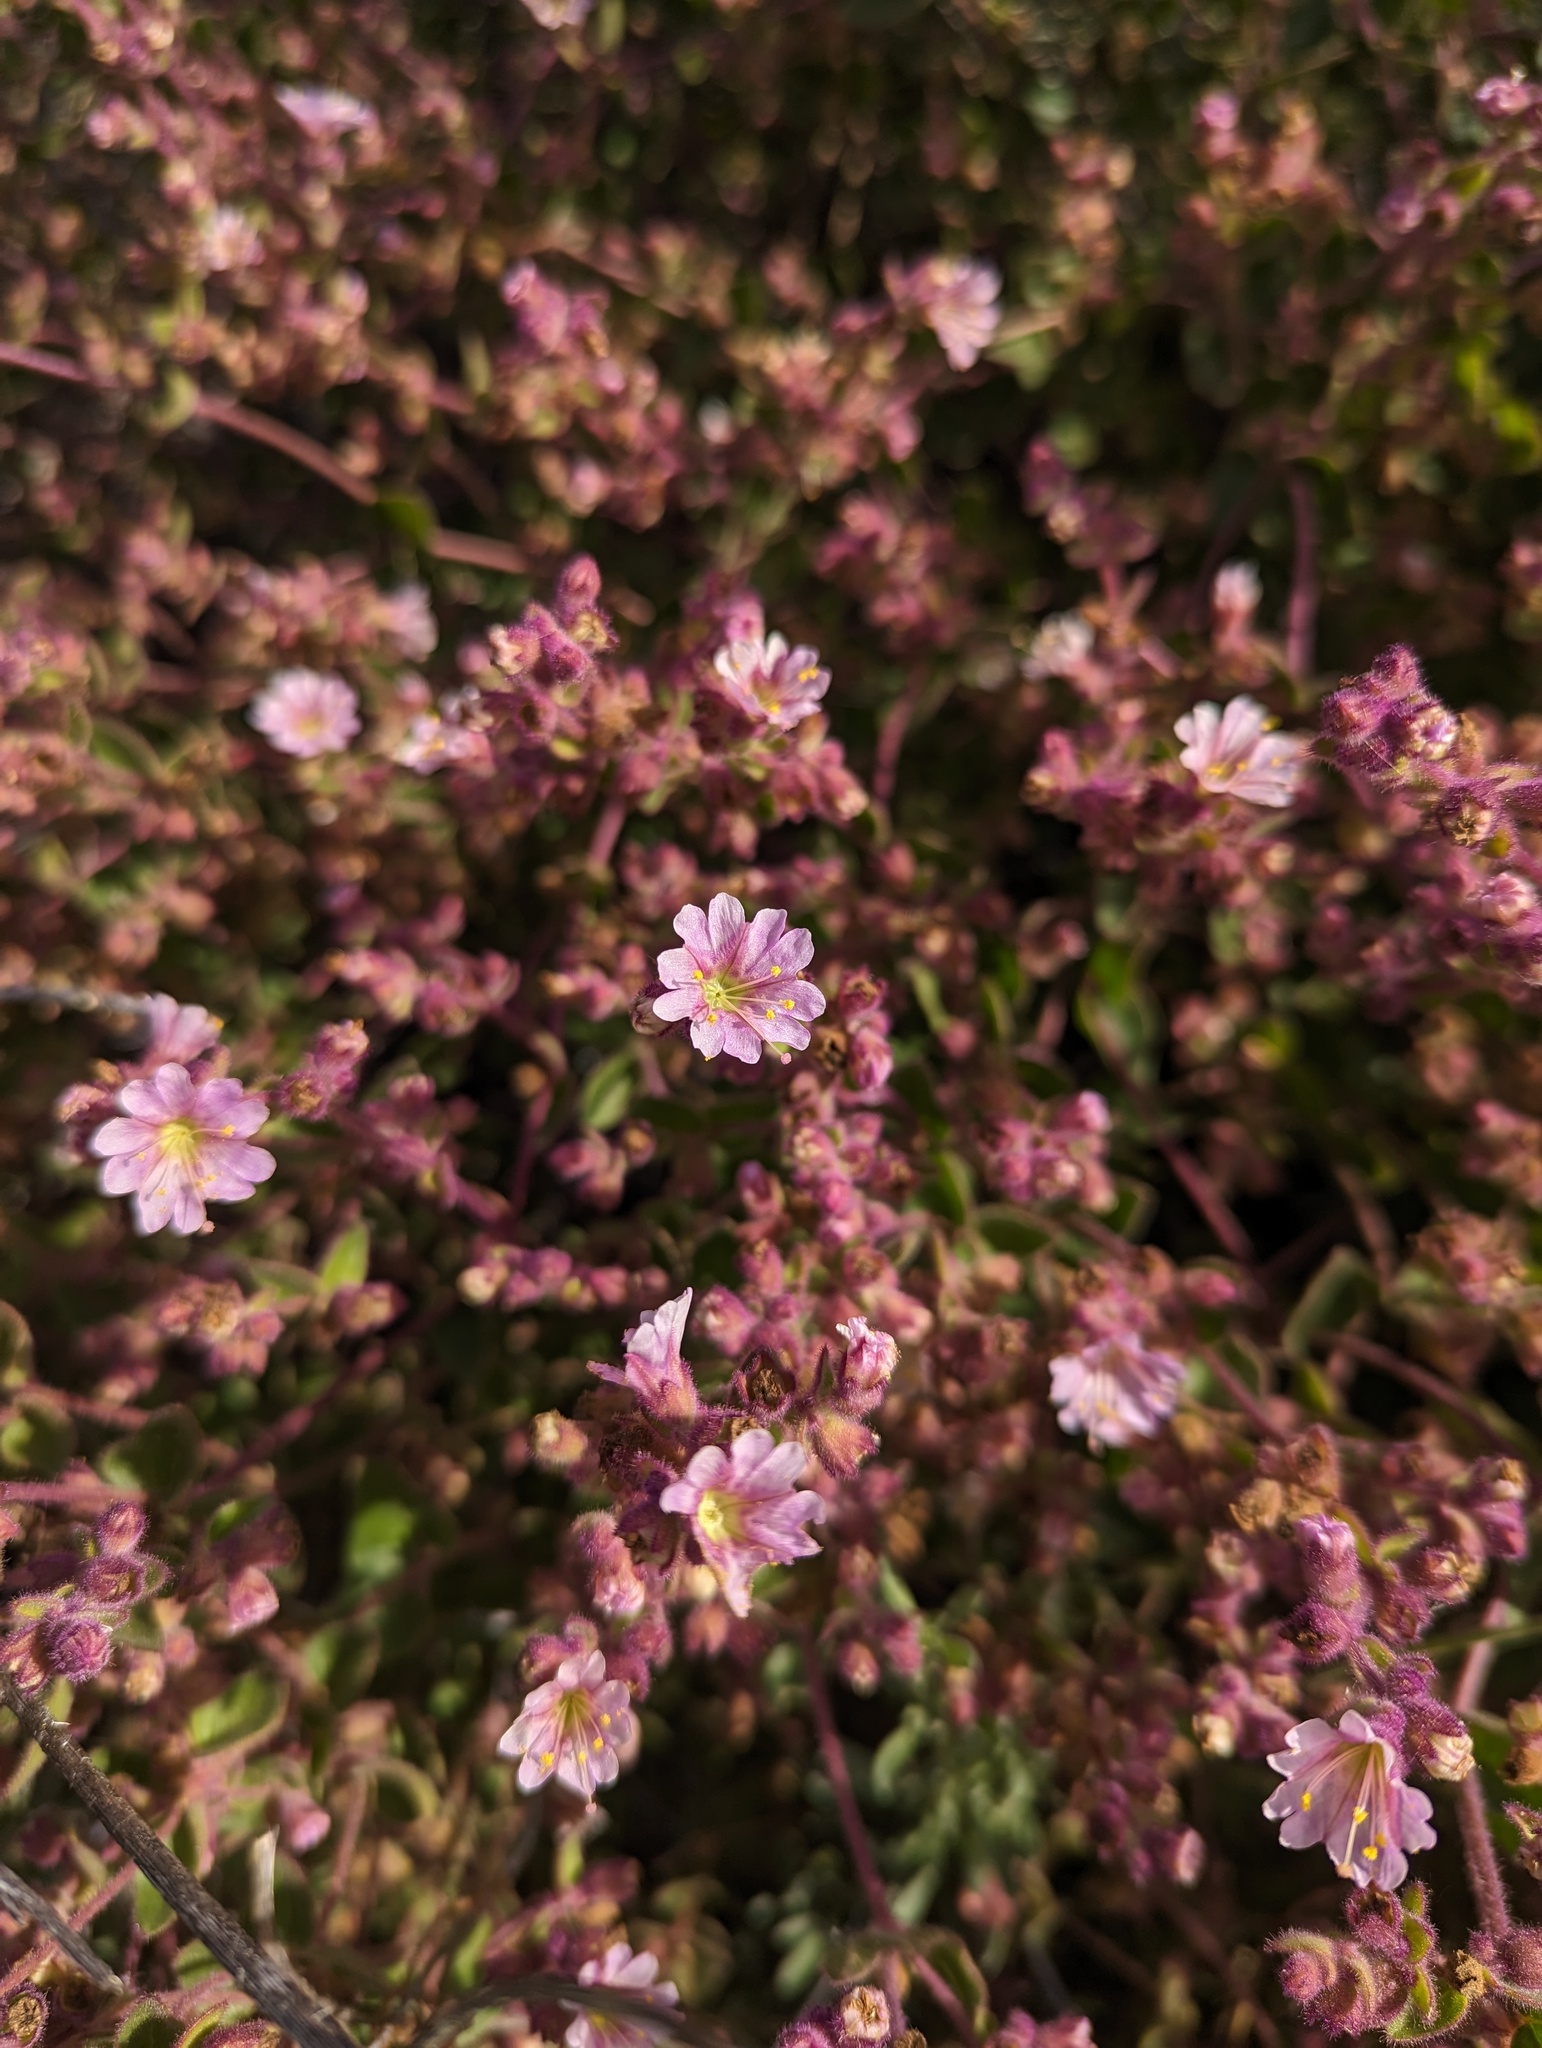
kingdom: Plantae
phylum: Tracheophyta
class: Magnoliopsida
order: Caryophyllales
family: Nyctaginaceae
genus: Mirabilis
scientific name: Mirabilis laevis
